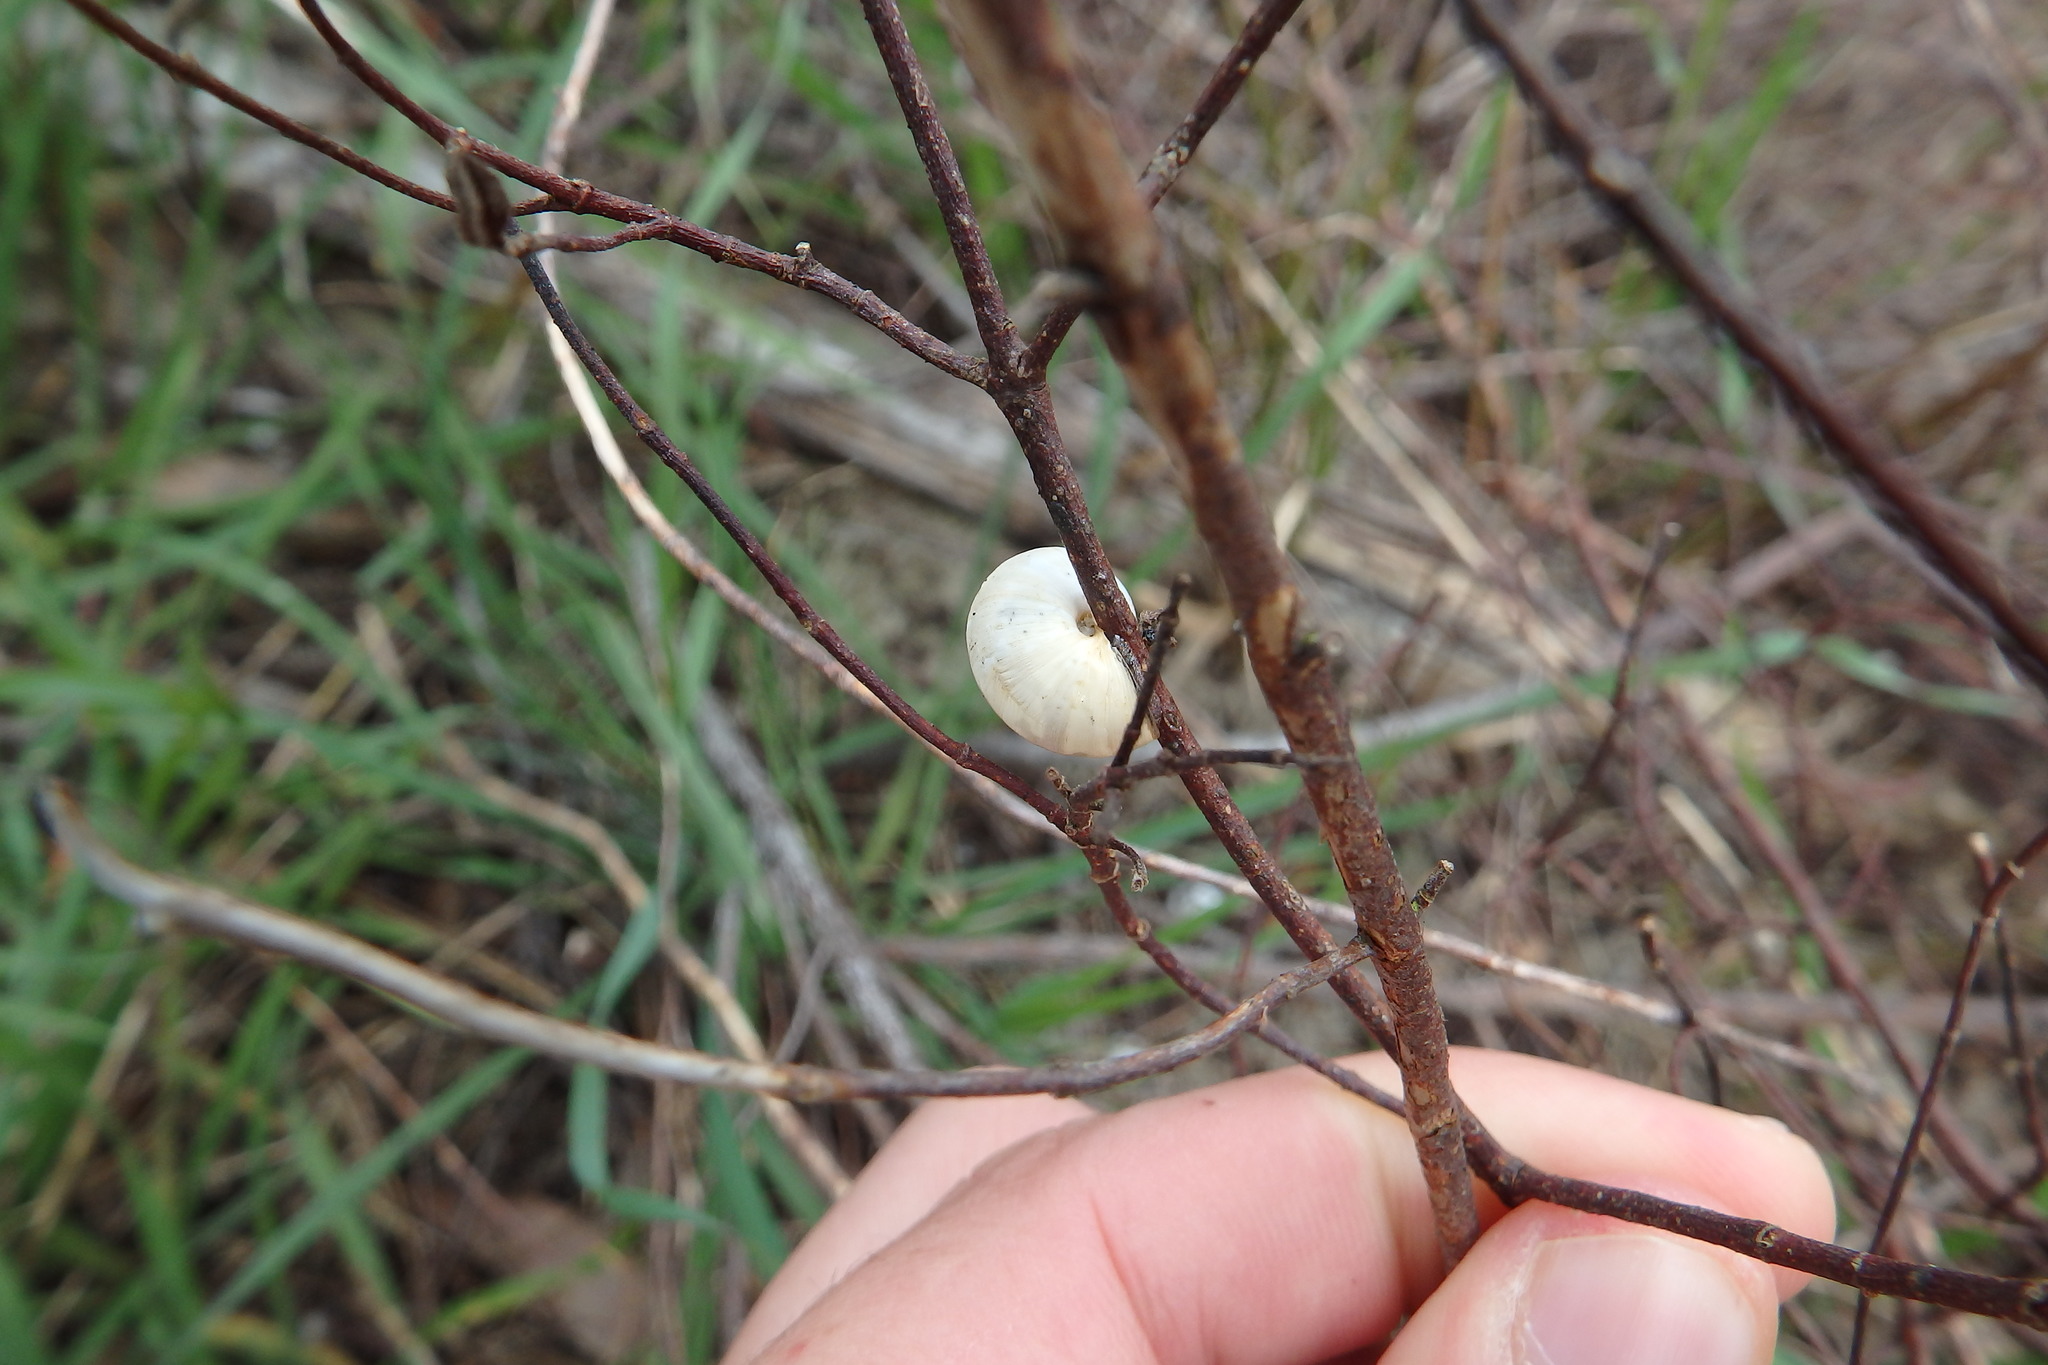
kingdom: Animalia
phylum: Mollusca
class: Gastropoda
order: Stylommatophora
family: Helicidae
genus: Theba
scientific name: Theba pisana
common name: White snail
